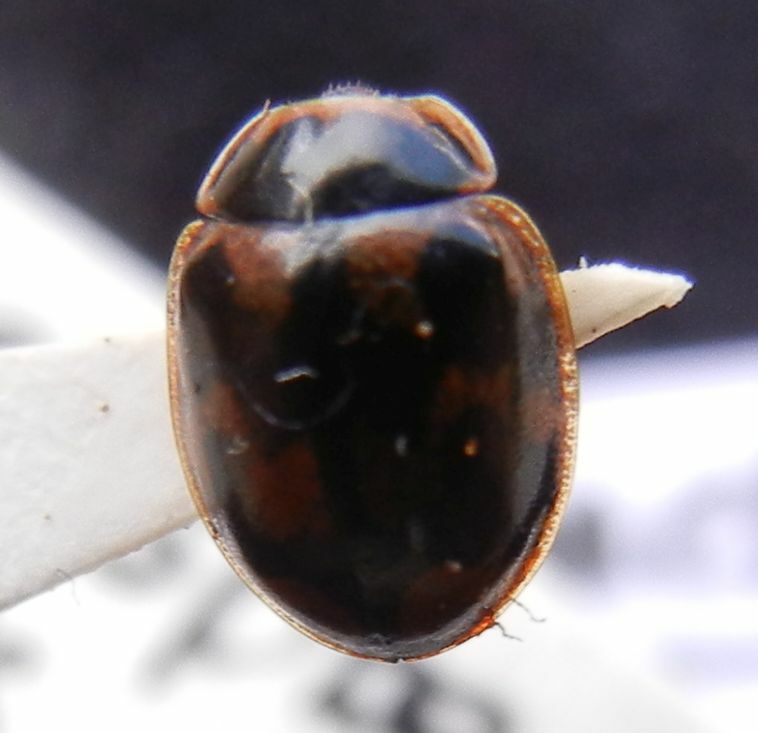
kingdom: Animalia
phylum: Arthropoda
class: Insecta
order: Coleoptera
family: Coccinellidae
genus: Propylaea
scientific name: Propylaea quatuordecimpunctata
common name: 14-spotted ladybird beetle
